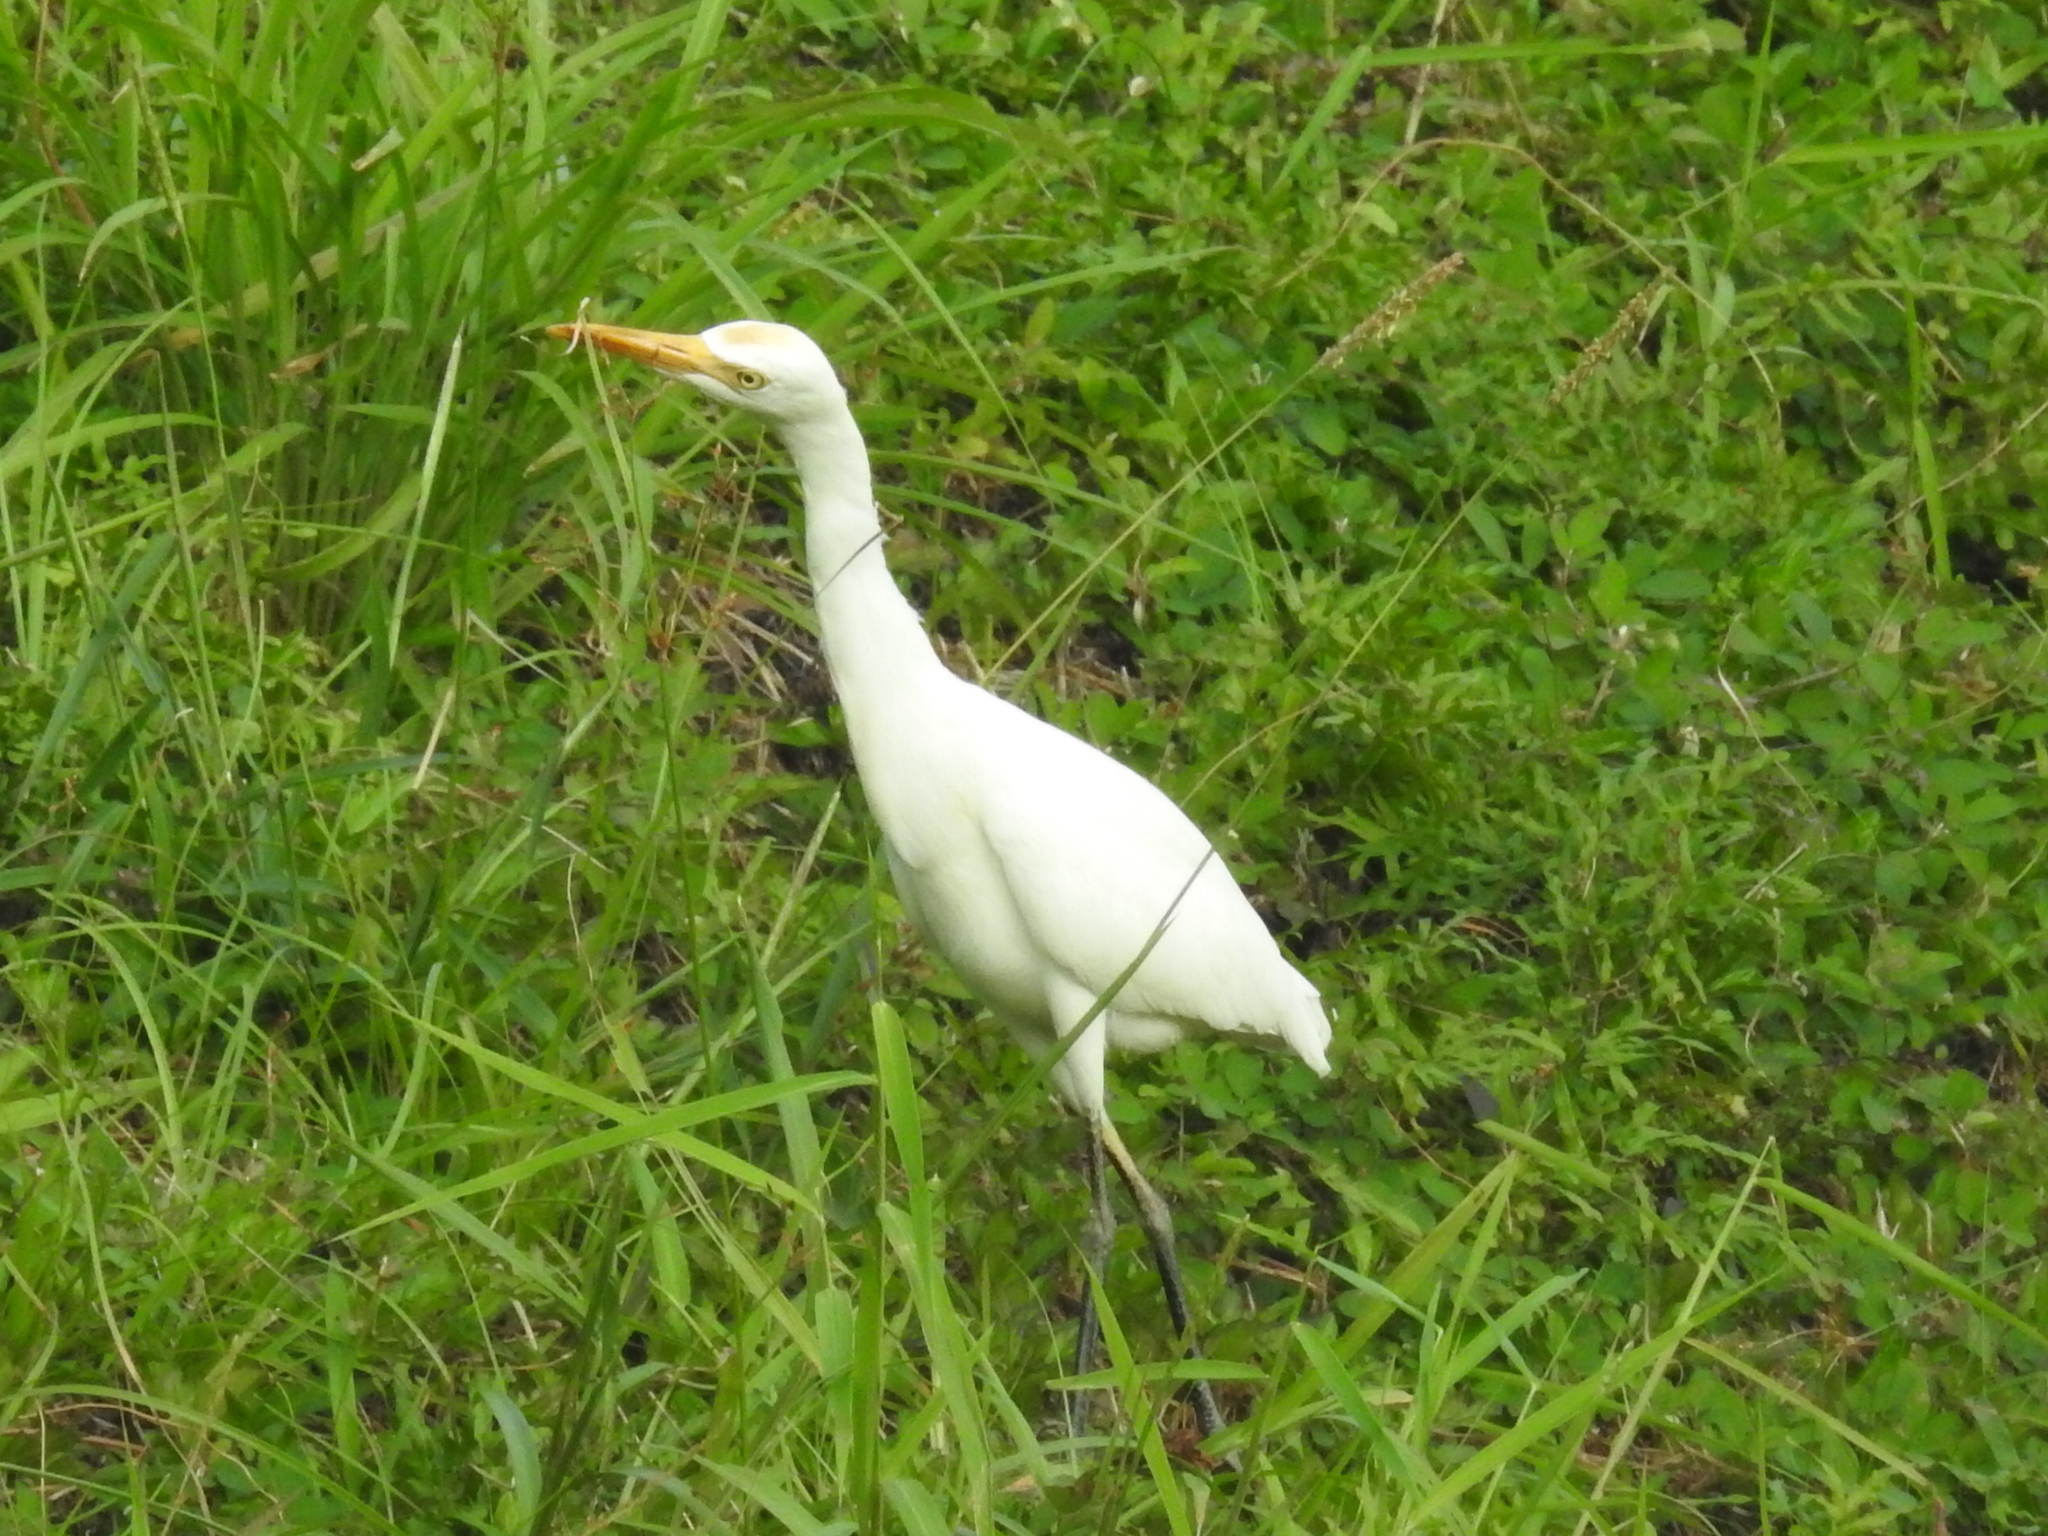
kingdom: Animalia
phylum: Chordata
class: Aves
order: Pelecaniformes
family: Ardeidae
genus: Bubulcus
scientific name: Bubulcus coromandus
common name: Eastern cattle egret
